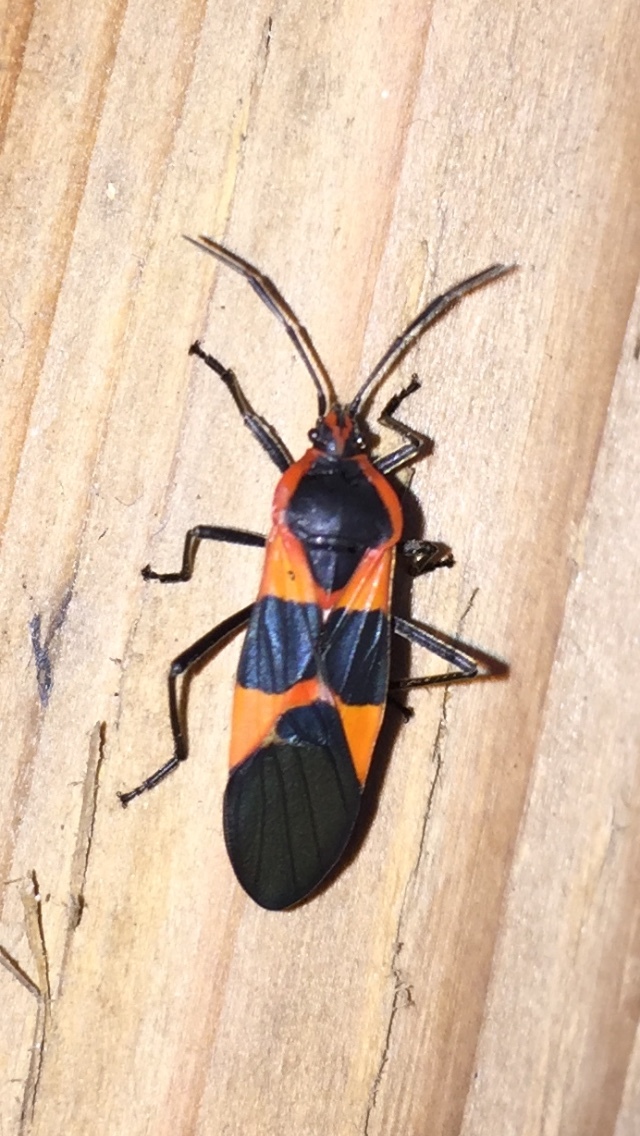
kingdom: Animalia
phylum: Arthropoda
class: Insecta
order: Hemiptera
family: Lygaeidae
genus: Oncopeltus
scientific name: Oncopeltus fasciatus
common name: Large milkweed bug
